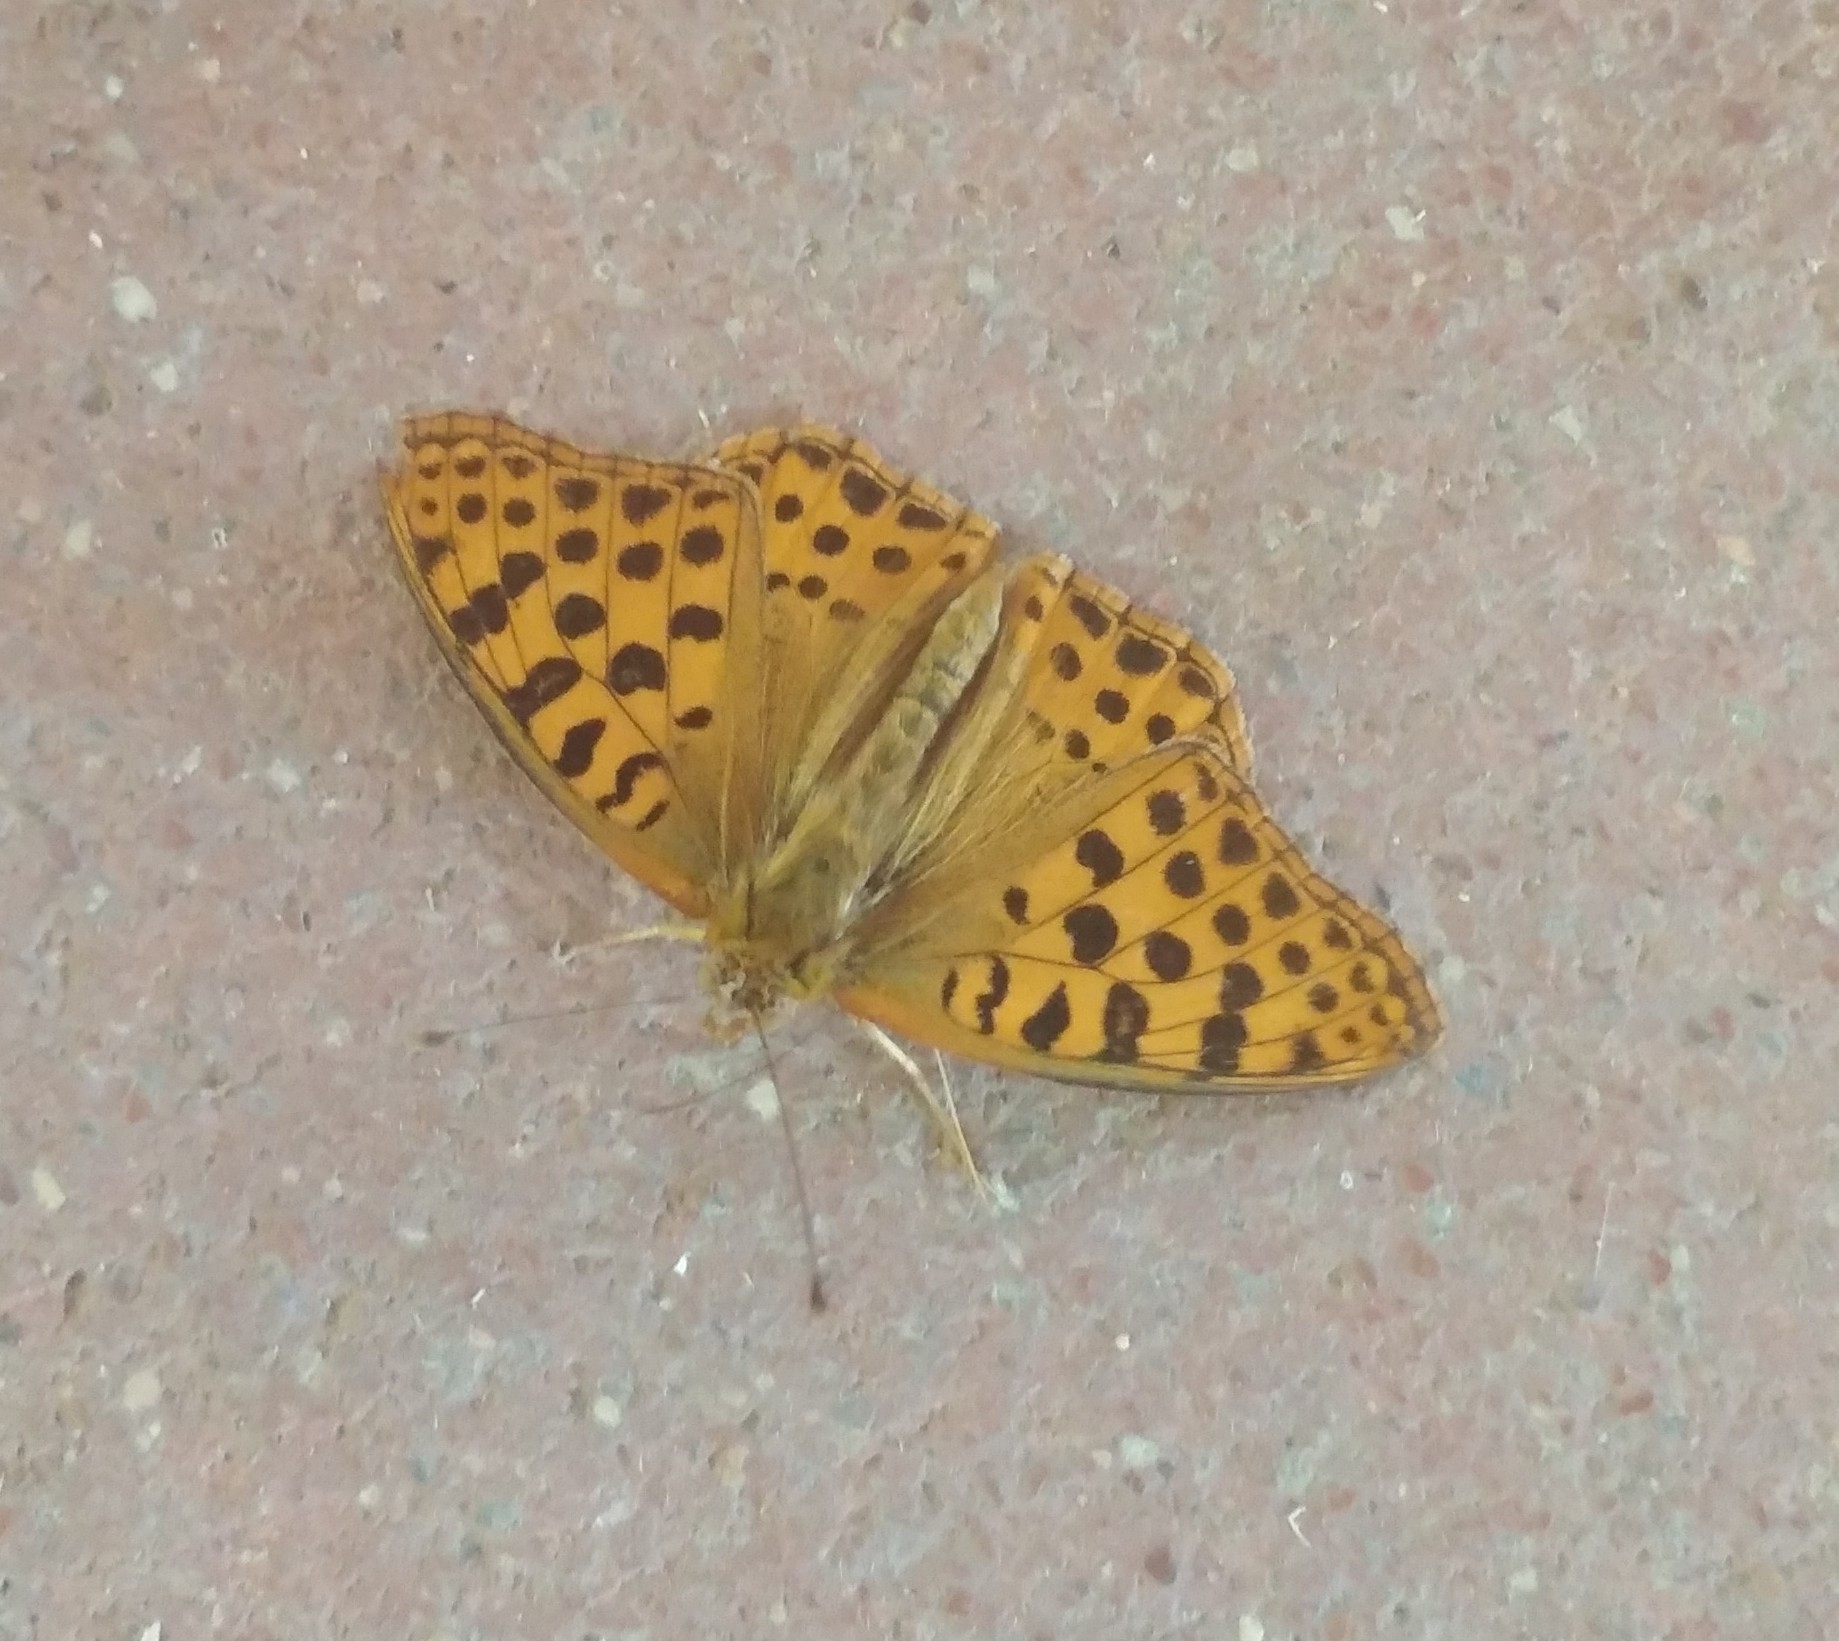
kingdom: Animalia
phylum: Arthropoda
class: Insecta
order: Lepidoptera
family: Nymphalidae
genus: Issoria
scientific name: Issoria lathonia
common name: Queen of spain fritillary
